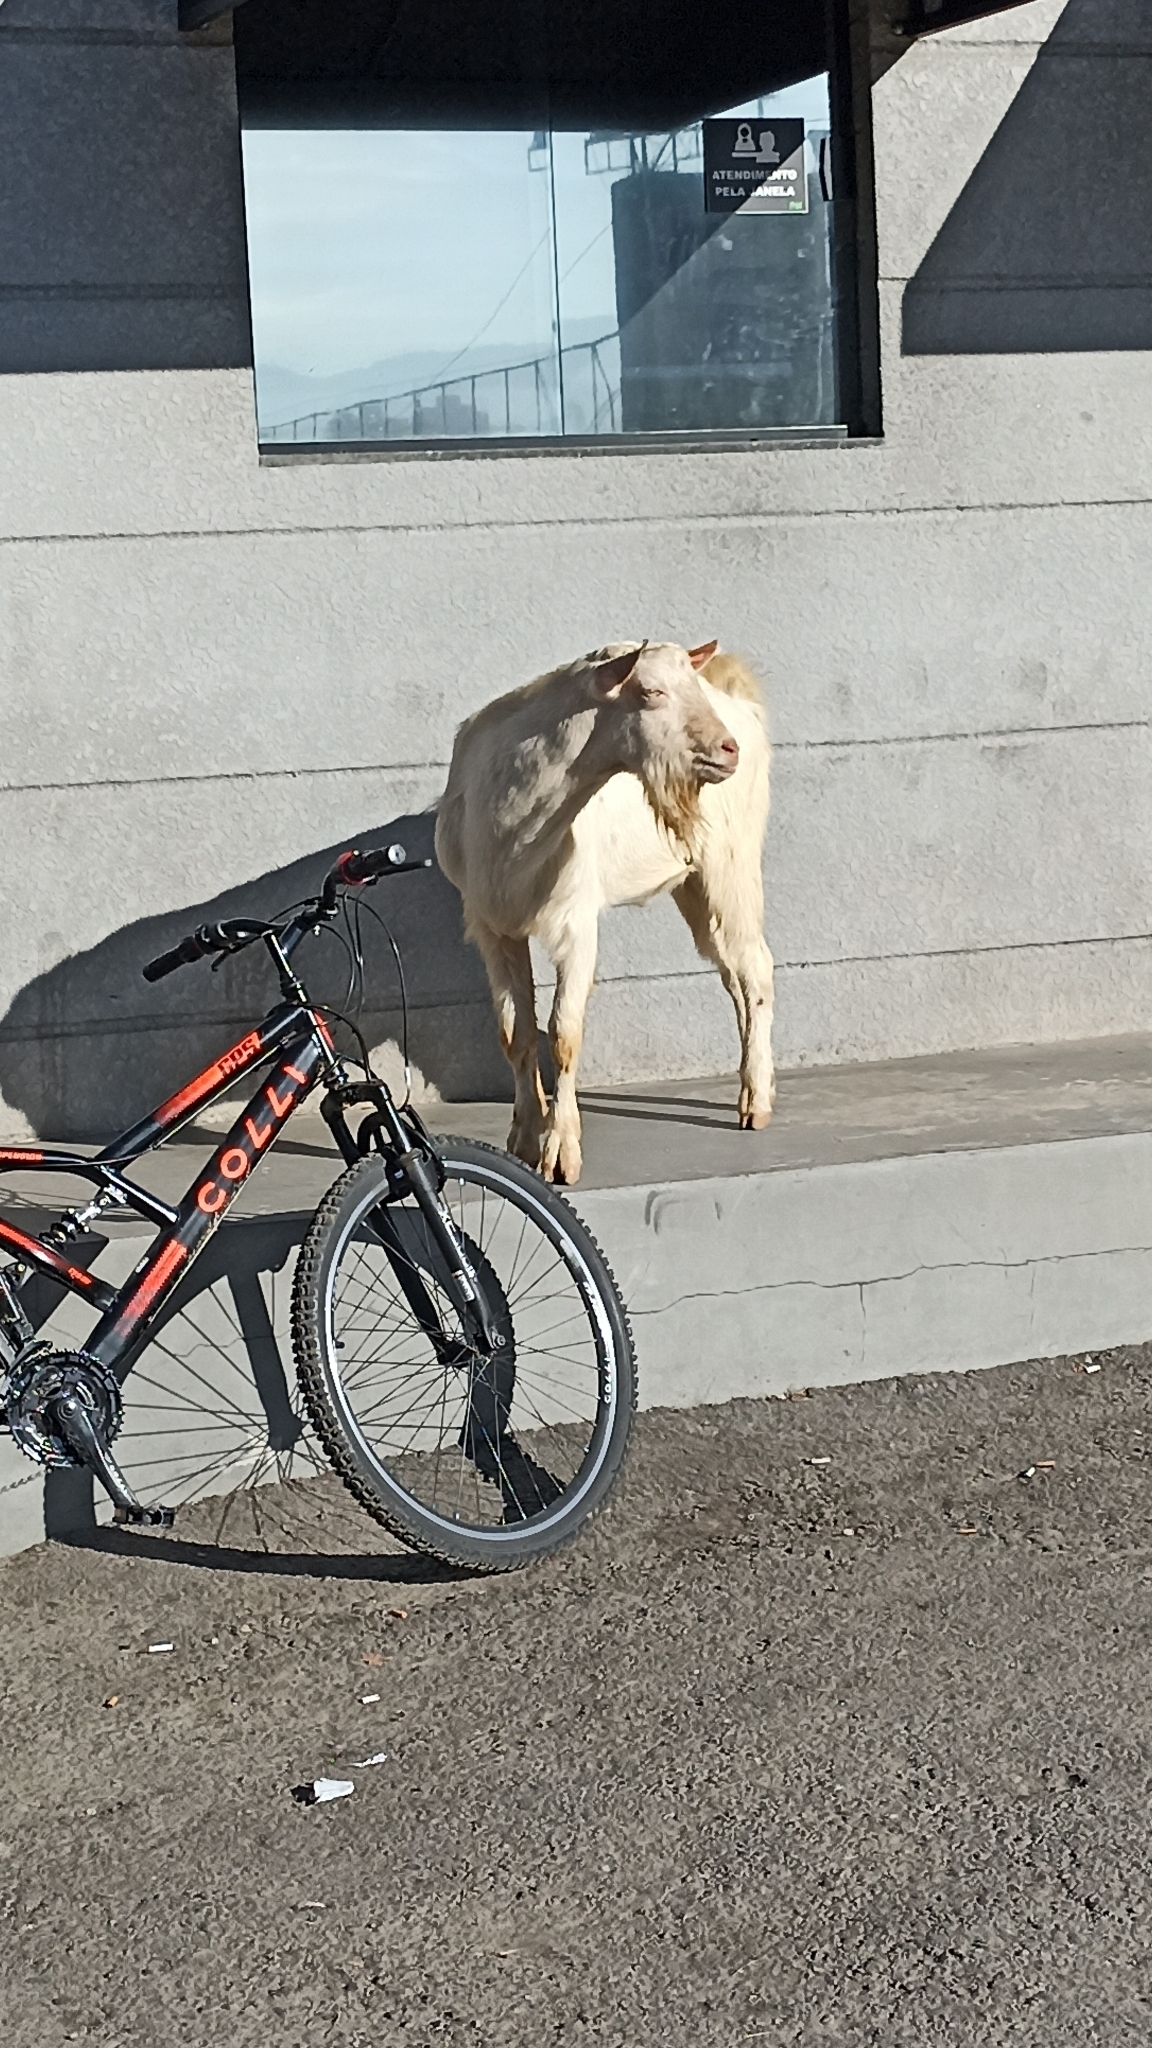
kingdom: Animalia
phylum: Chordata
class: Mammalia
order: Artiodactyla
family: Bovidae
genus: Capra
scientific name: Capra hircus
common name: Domestic goat
